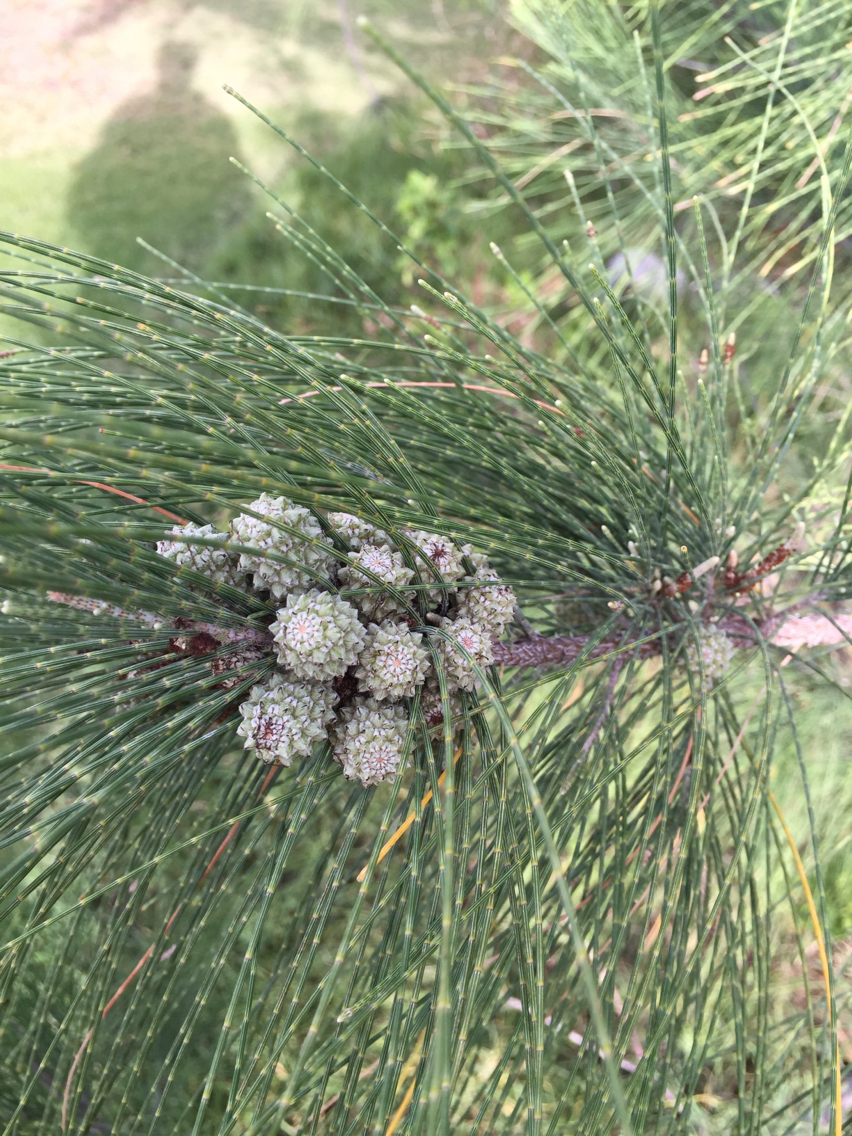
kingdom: Plantae
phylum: Tracheophyta
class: Magnoliopsida
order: Fagales
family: Casuarinaceae
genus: Casuarina
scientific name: Casuarina equisetifolia
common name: Beach sheoak
